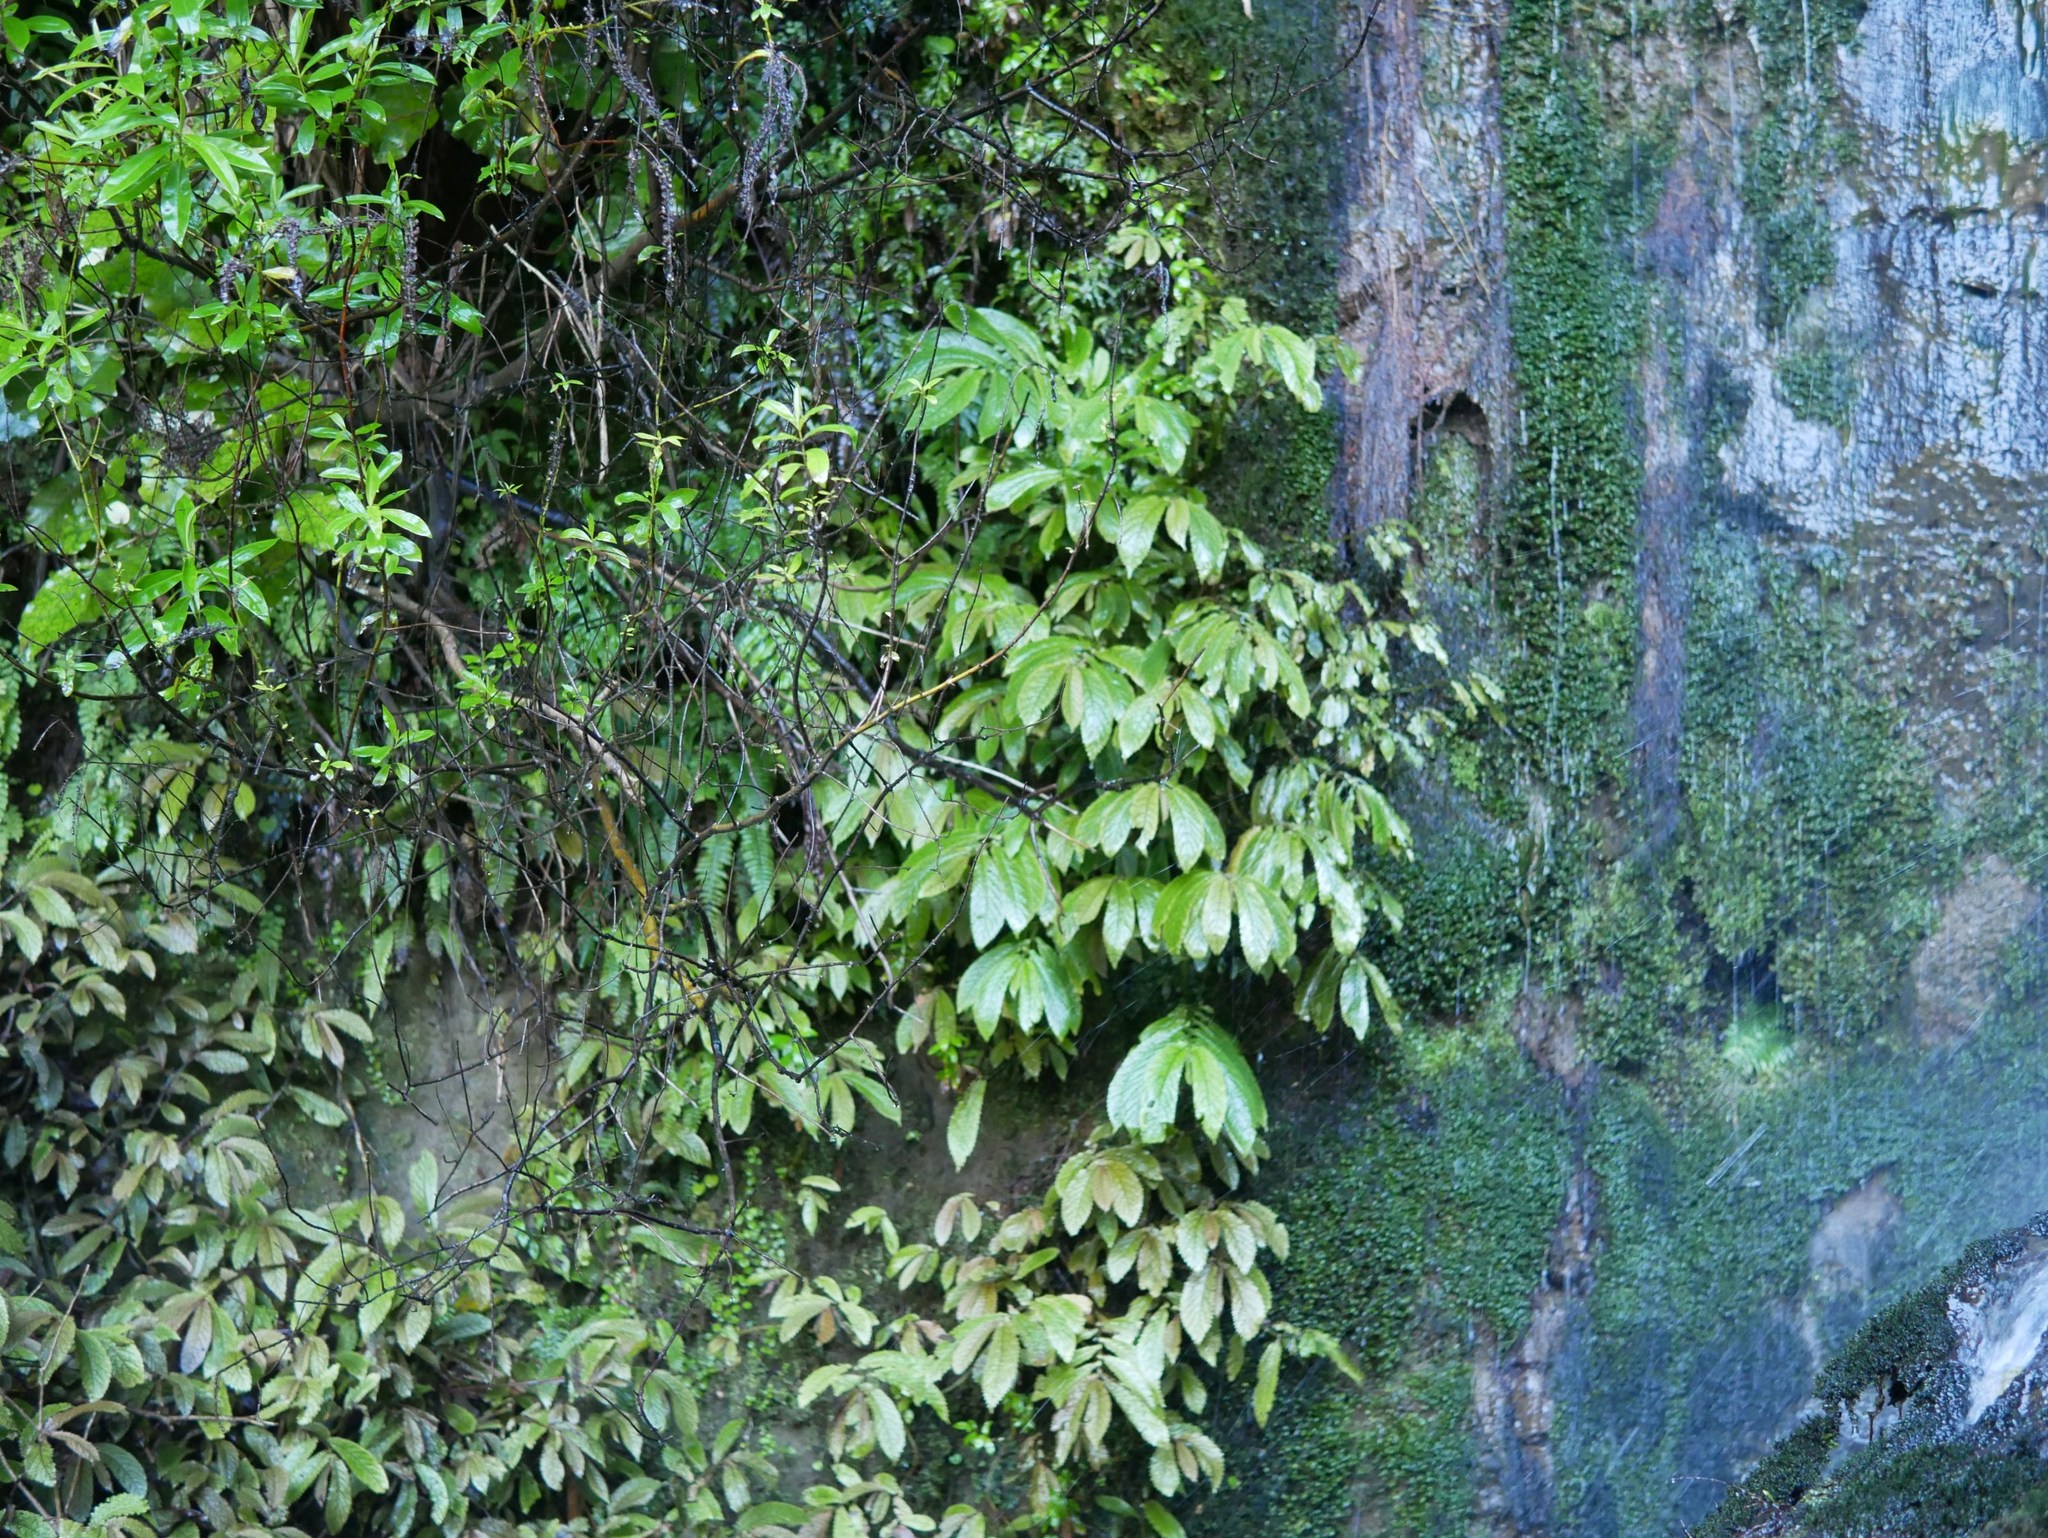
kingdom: Plantae
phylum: Tracheophyta
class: Magnoliopsida
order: Rosales
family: Urticaceae
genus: Elatostema
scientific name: Elatostema rugosum
